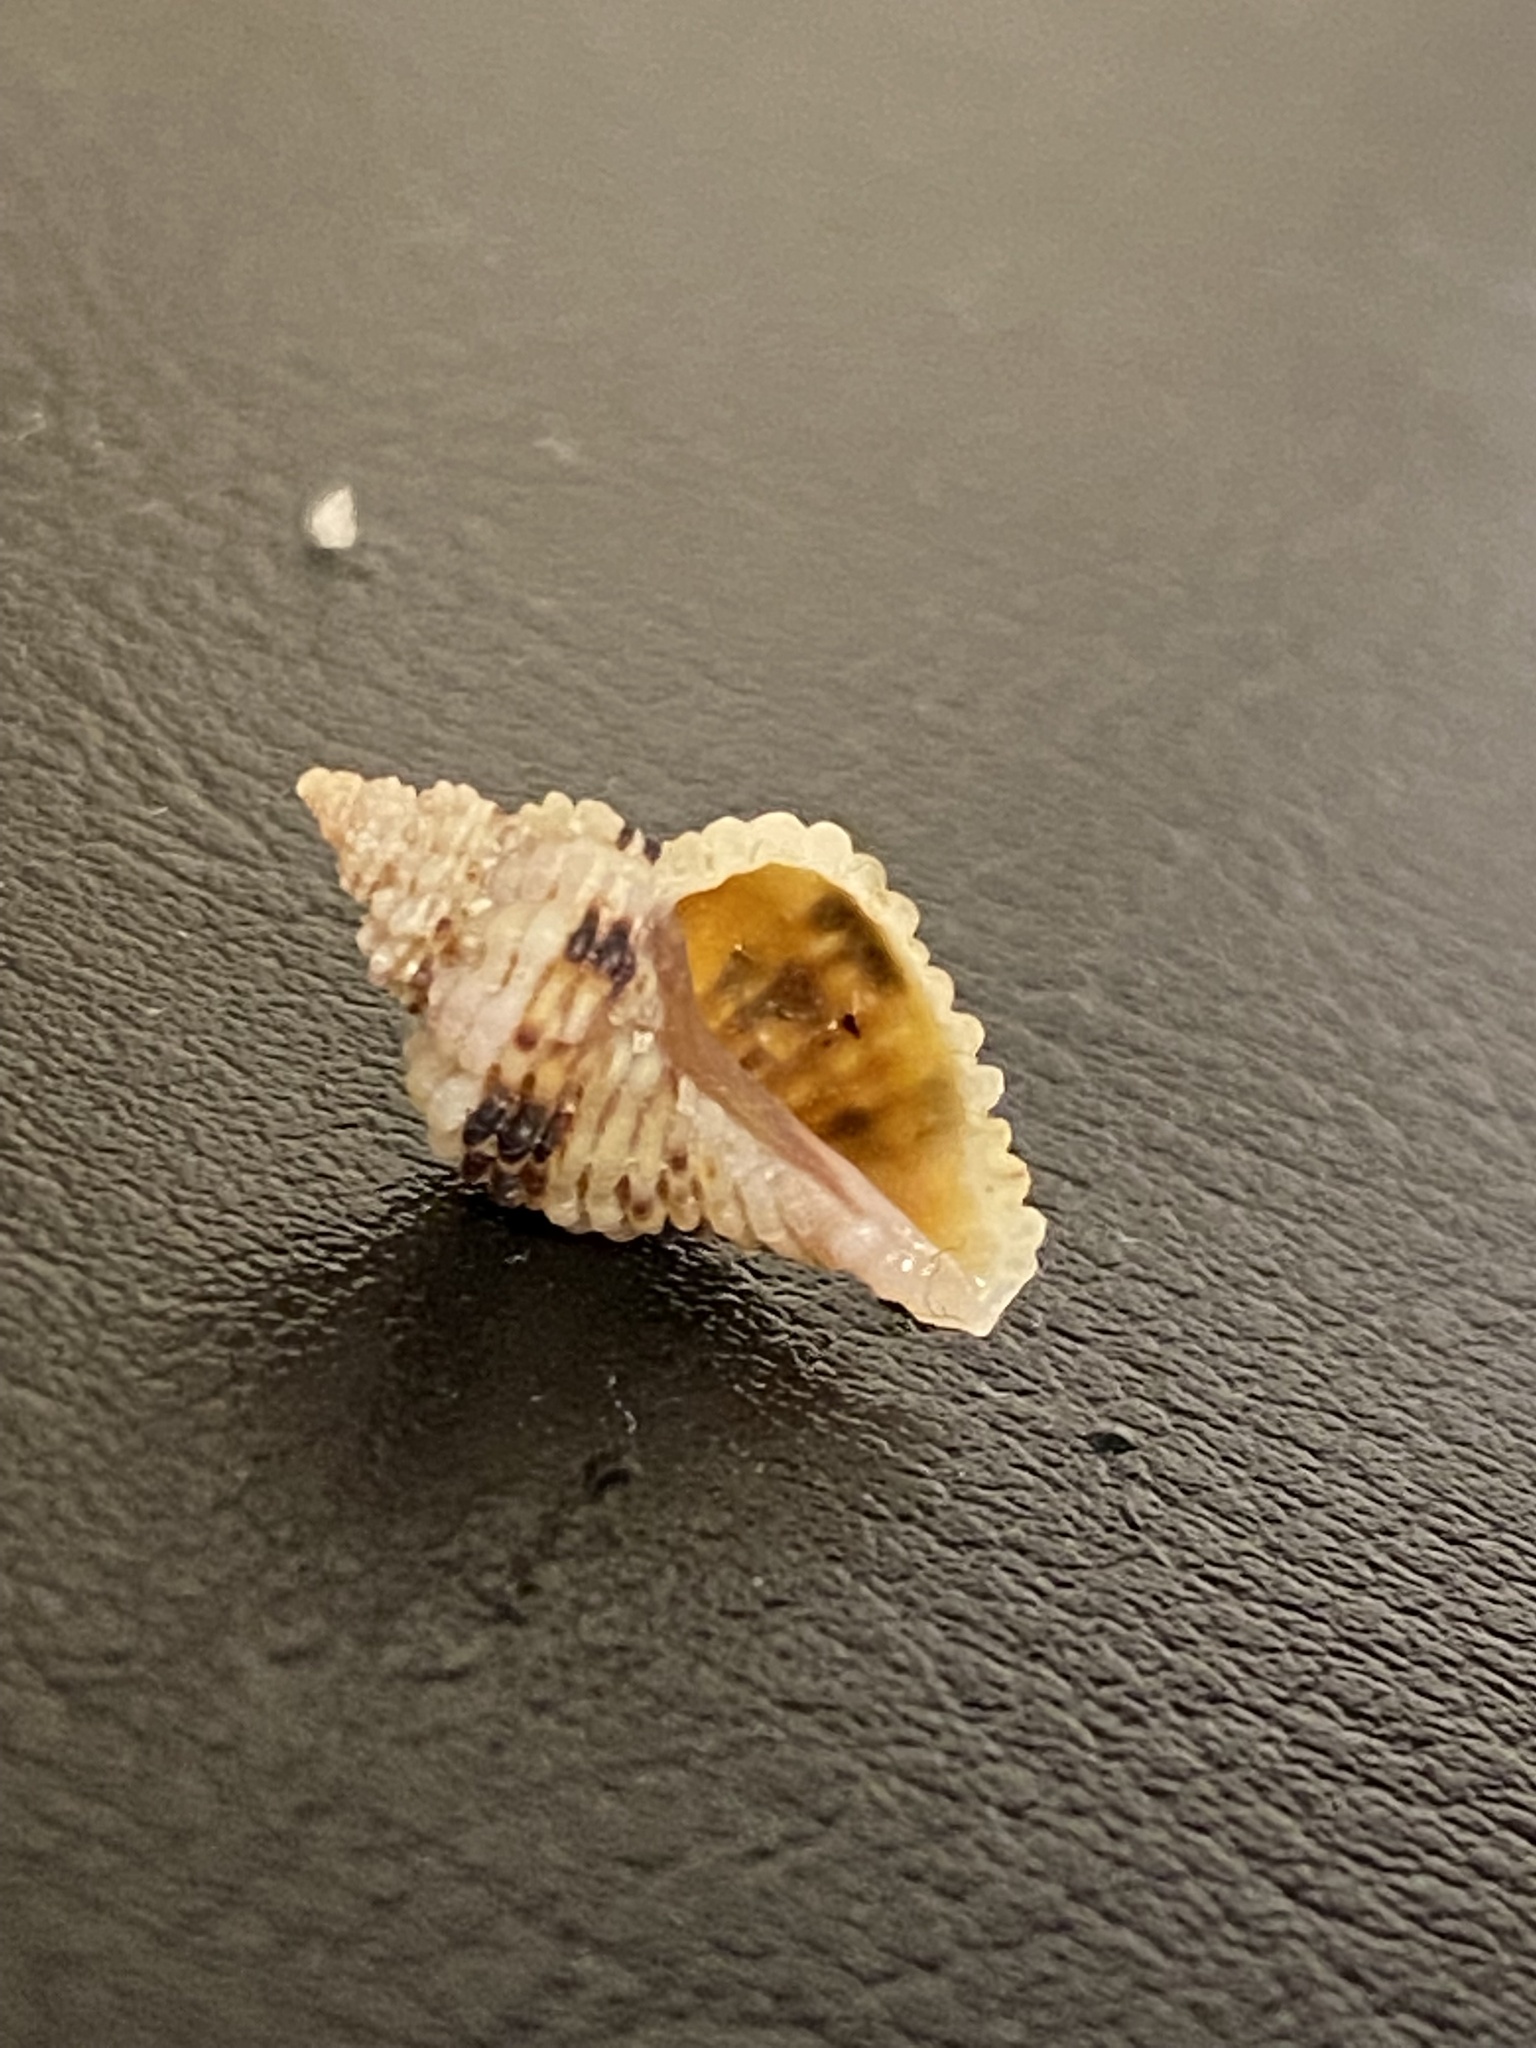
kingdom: Animalia
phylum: Mollusca
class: Gastropoda
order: Neogastropoda
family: Muricidae
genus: Paciocinebrina
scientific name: Paciocinebrina circumtexta
